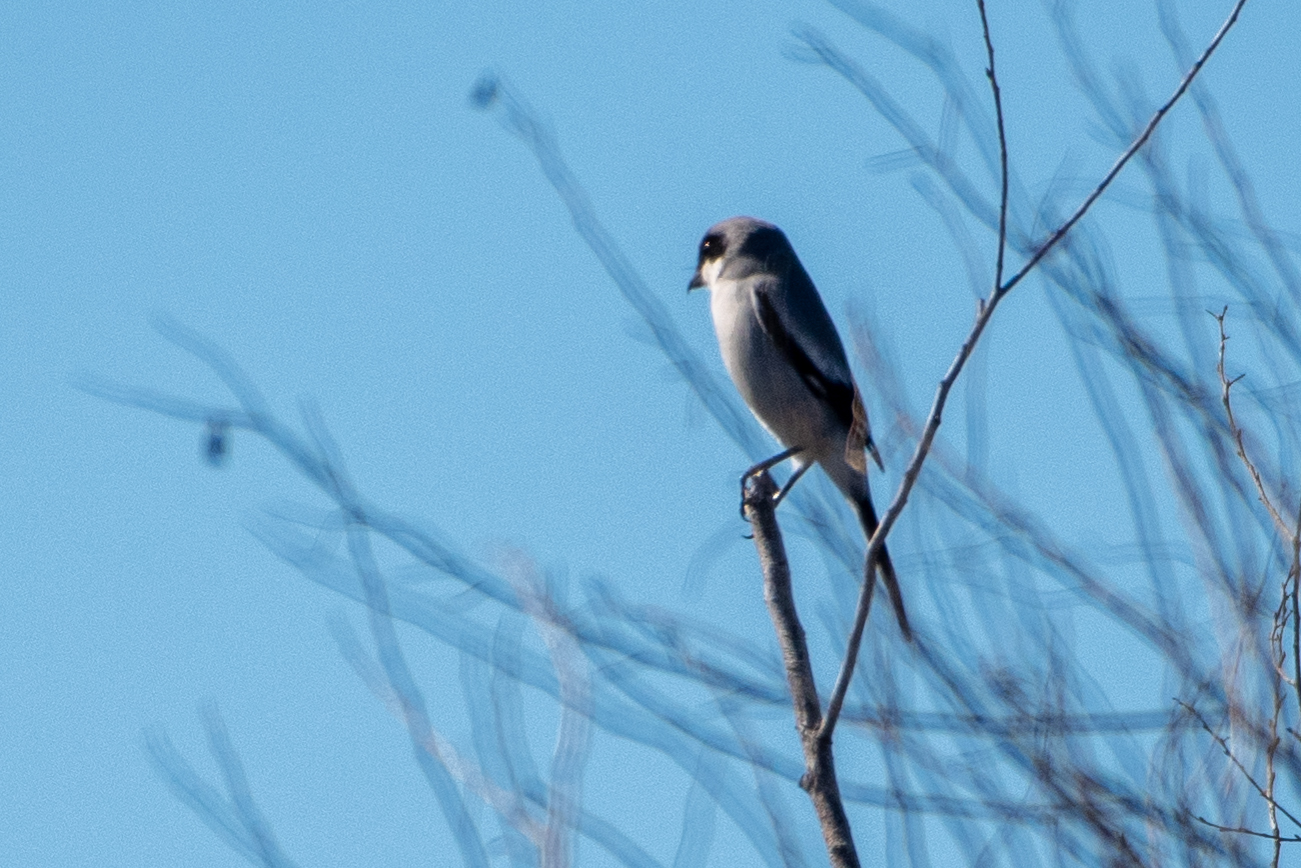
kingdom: Animalia
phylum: Chordata
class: Aves
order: Passeriformes
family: Laniidae
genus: Lanius
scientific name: Lanius ludovicianus
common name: Loggerhead shrike
